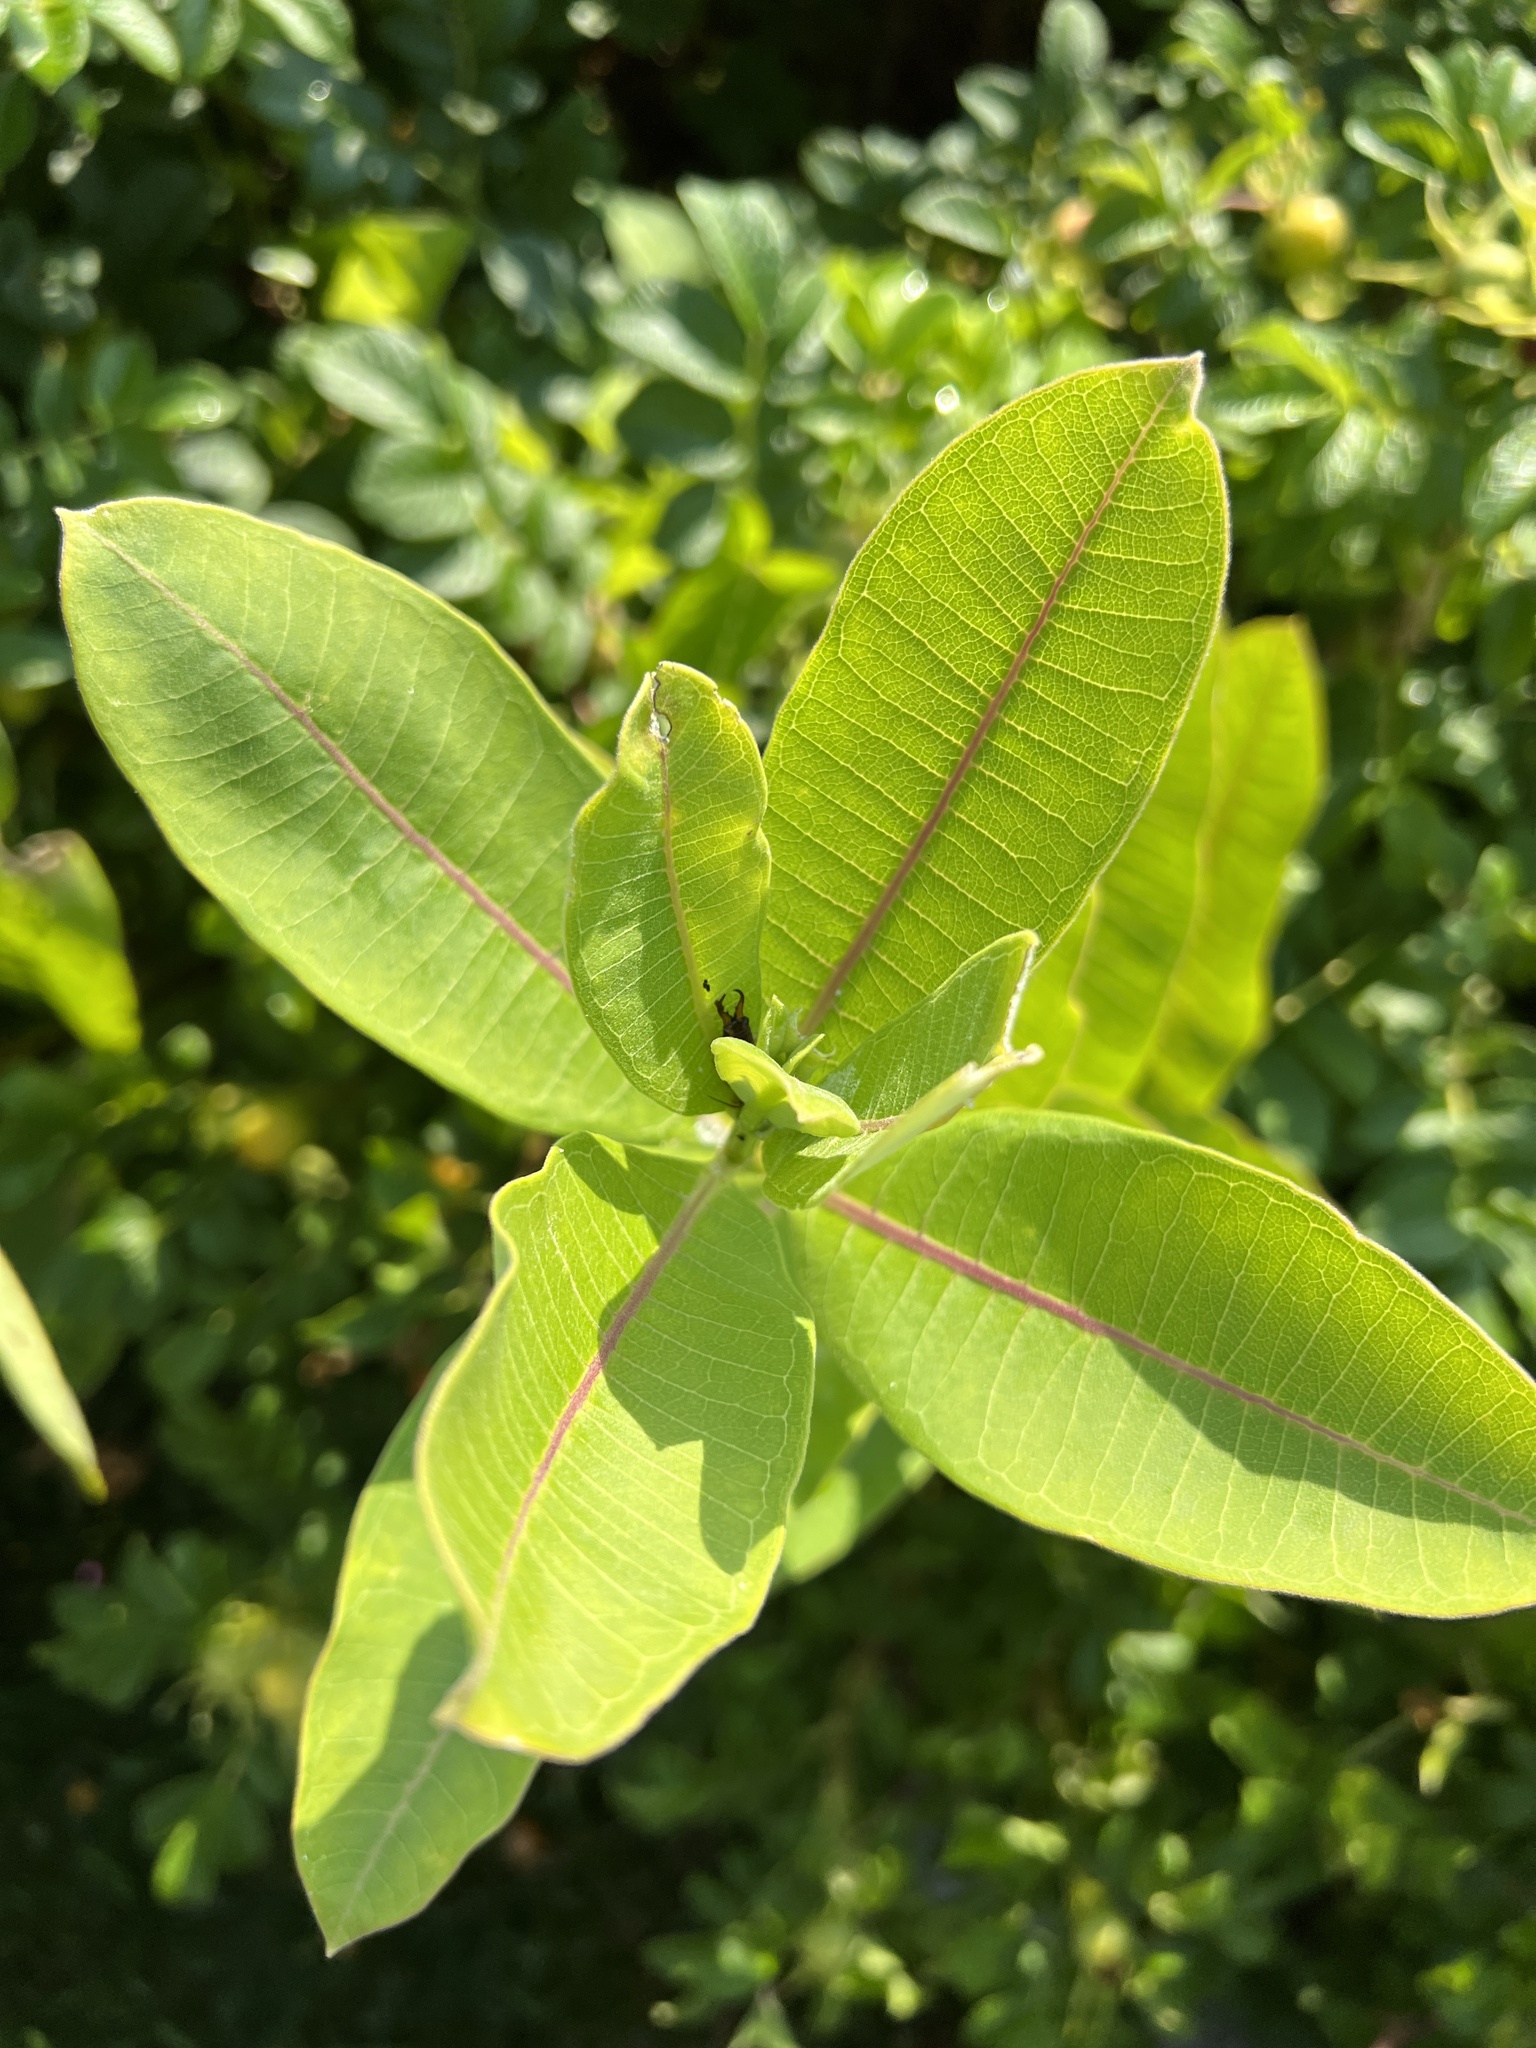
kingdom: Plantae
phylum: Tracheophyta
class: Magnoliopsida
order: Gentianales
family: Apocynaceae
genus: Asclepias
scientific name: Asclepias syriaca
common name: Common milkweed
